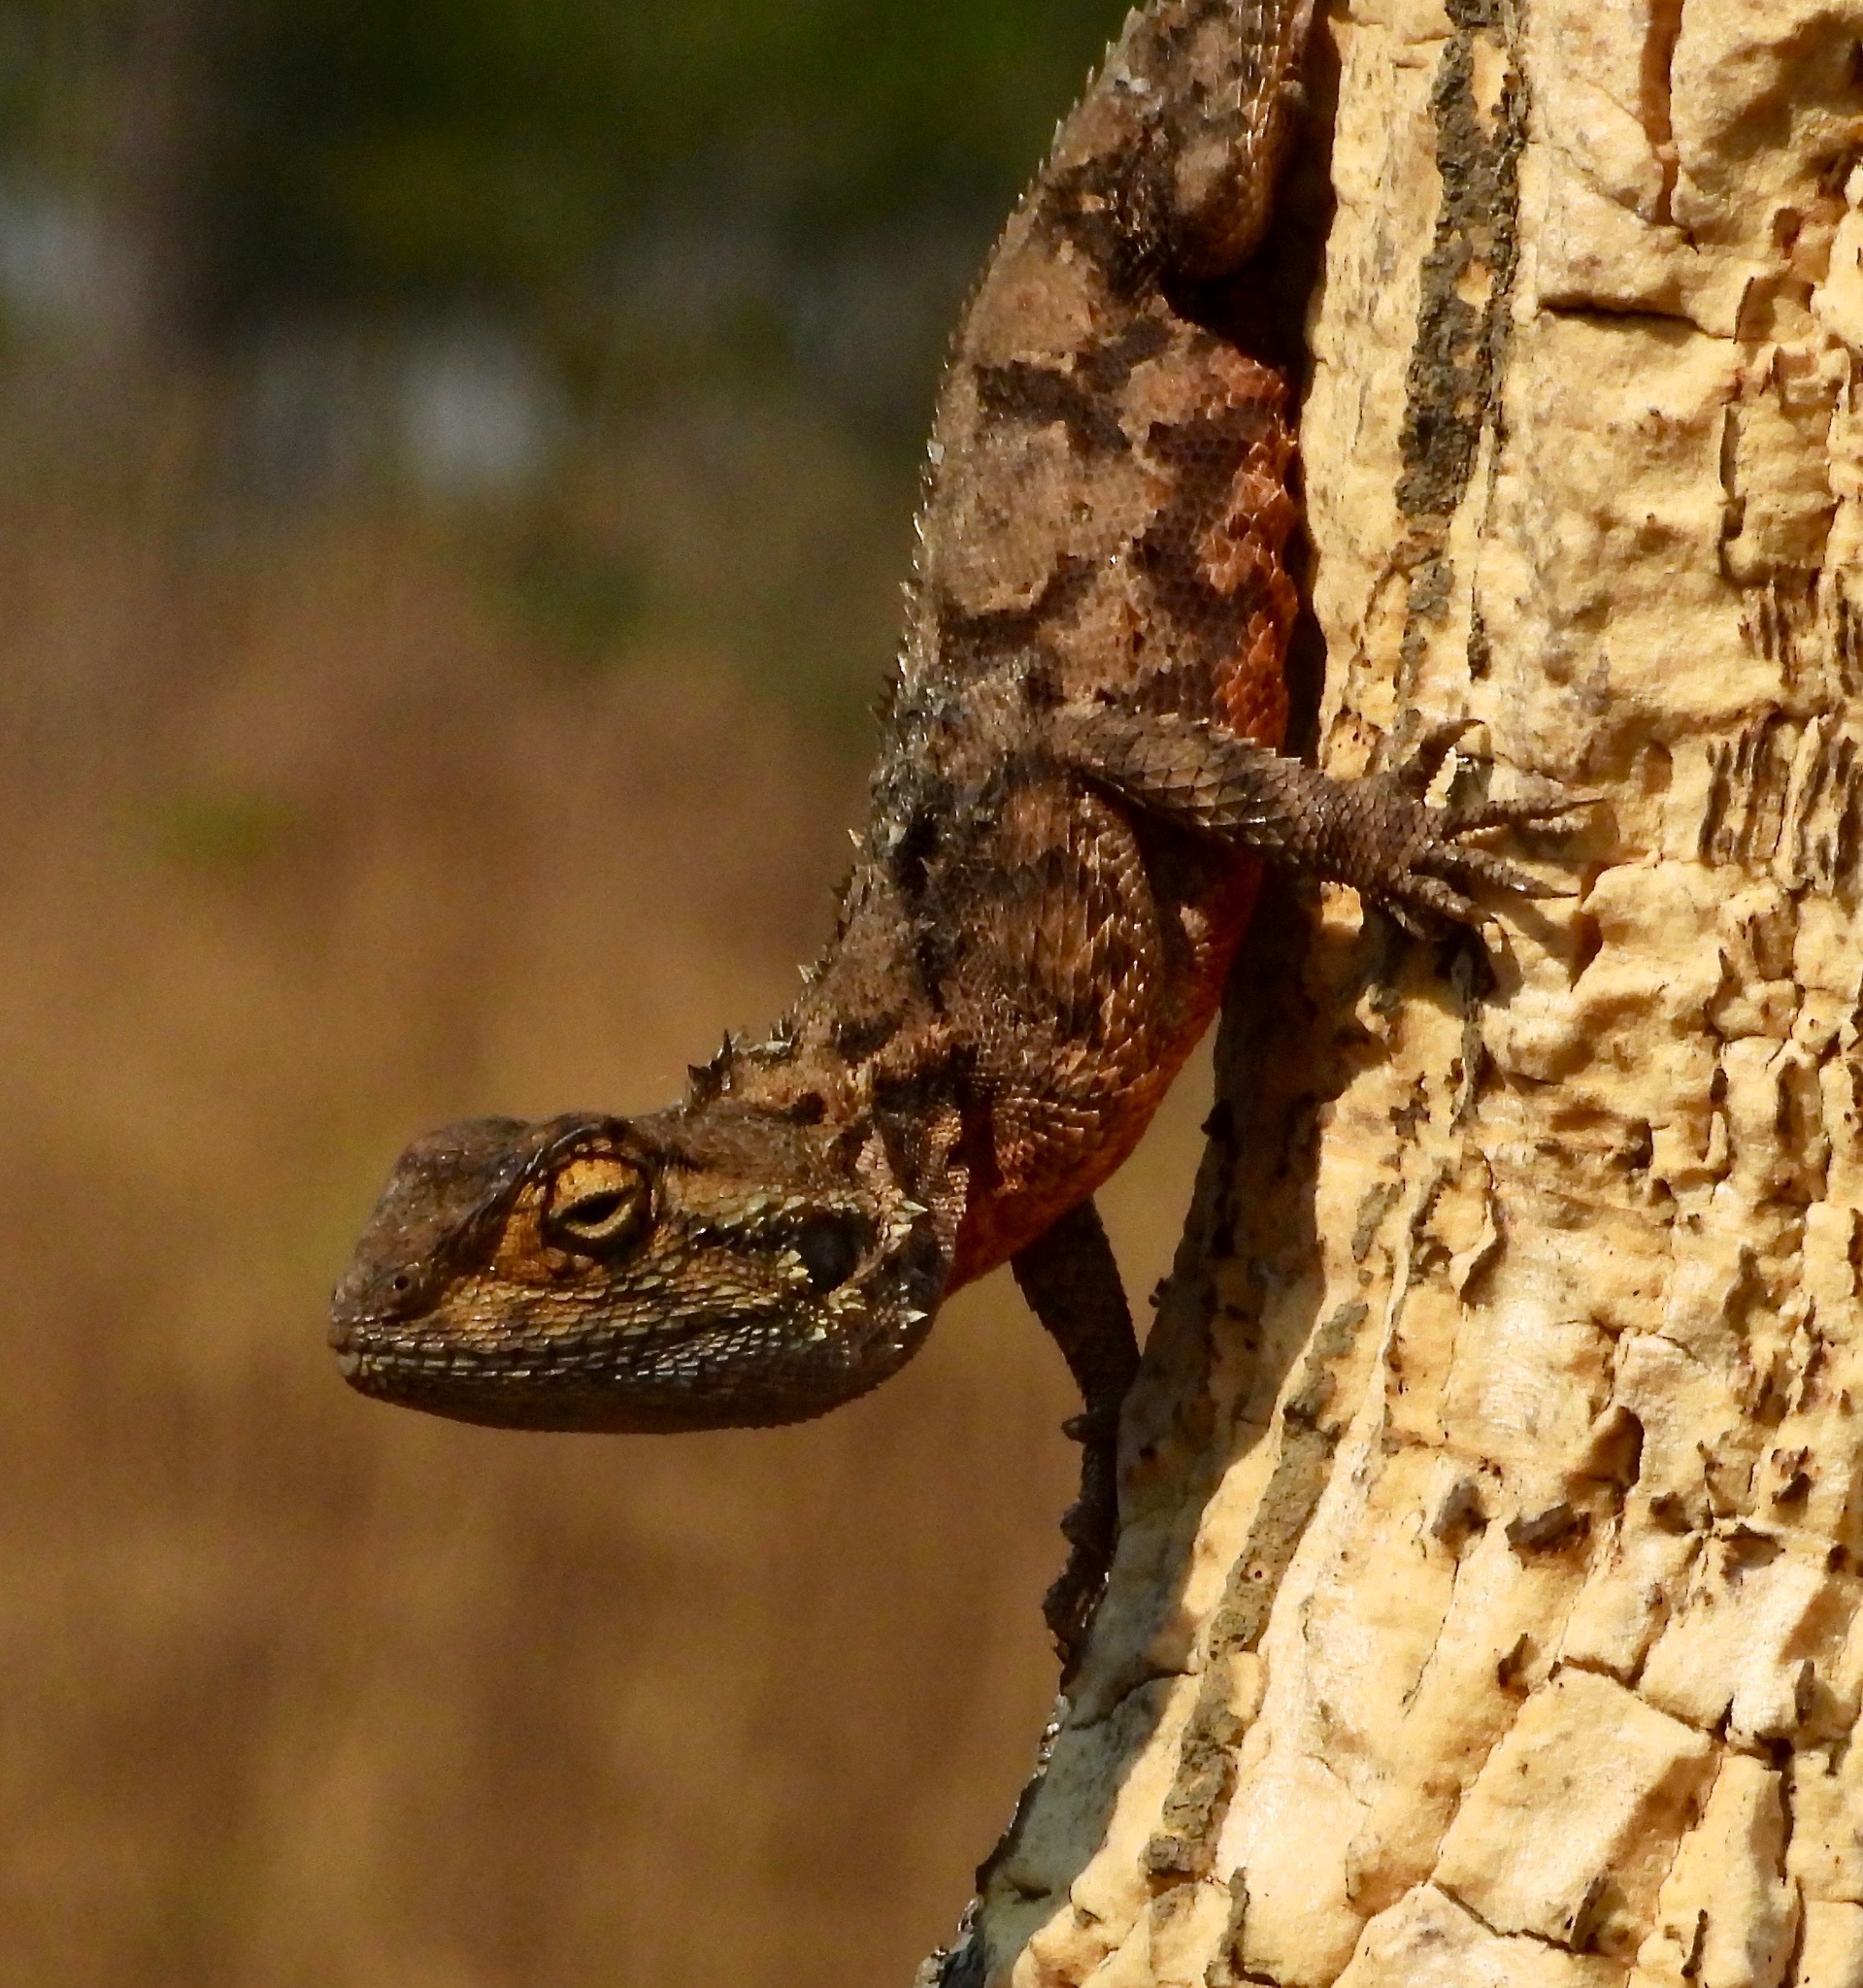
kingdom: Animalia
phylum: Chordata
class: Squamata
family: Agamidae
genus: Agama
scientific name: Agama aculeata
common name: Common ground agama
